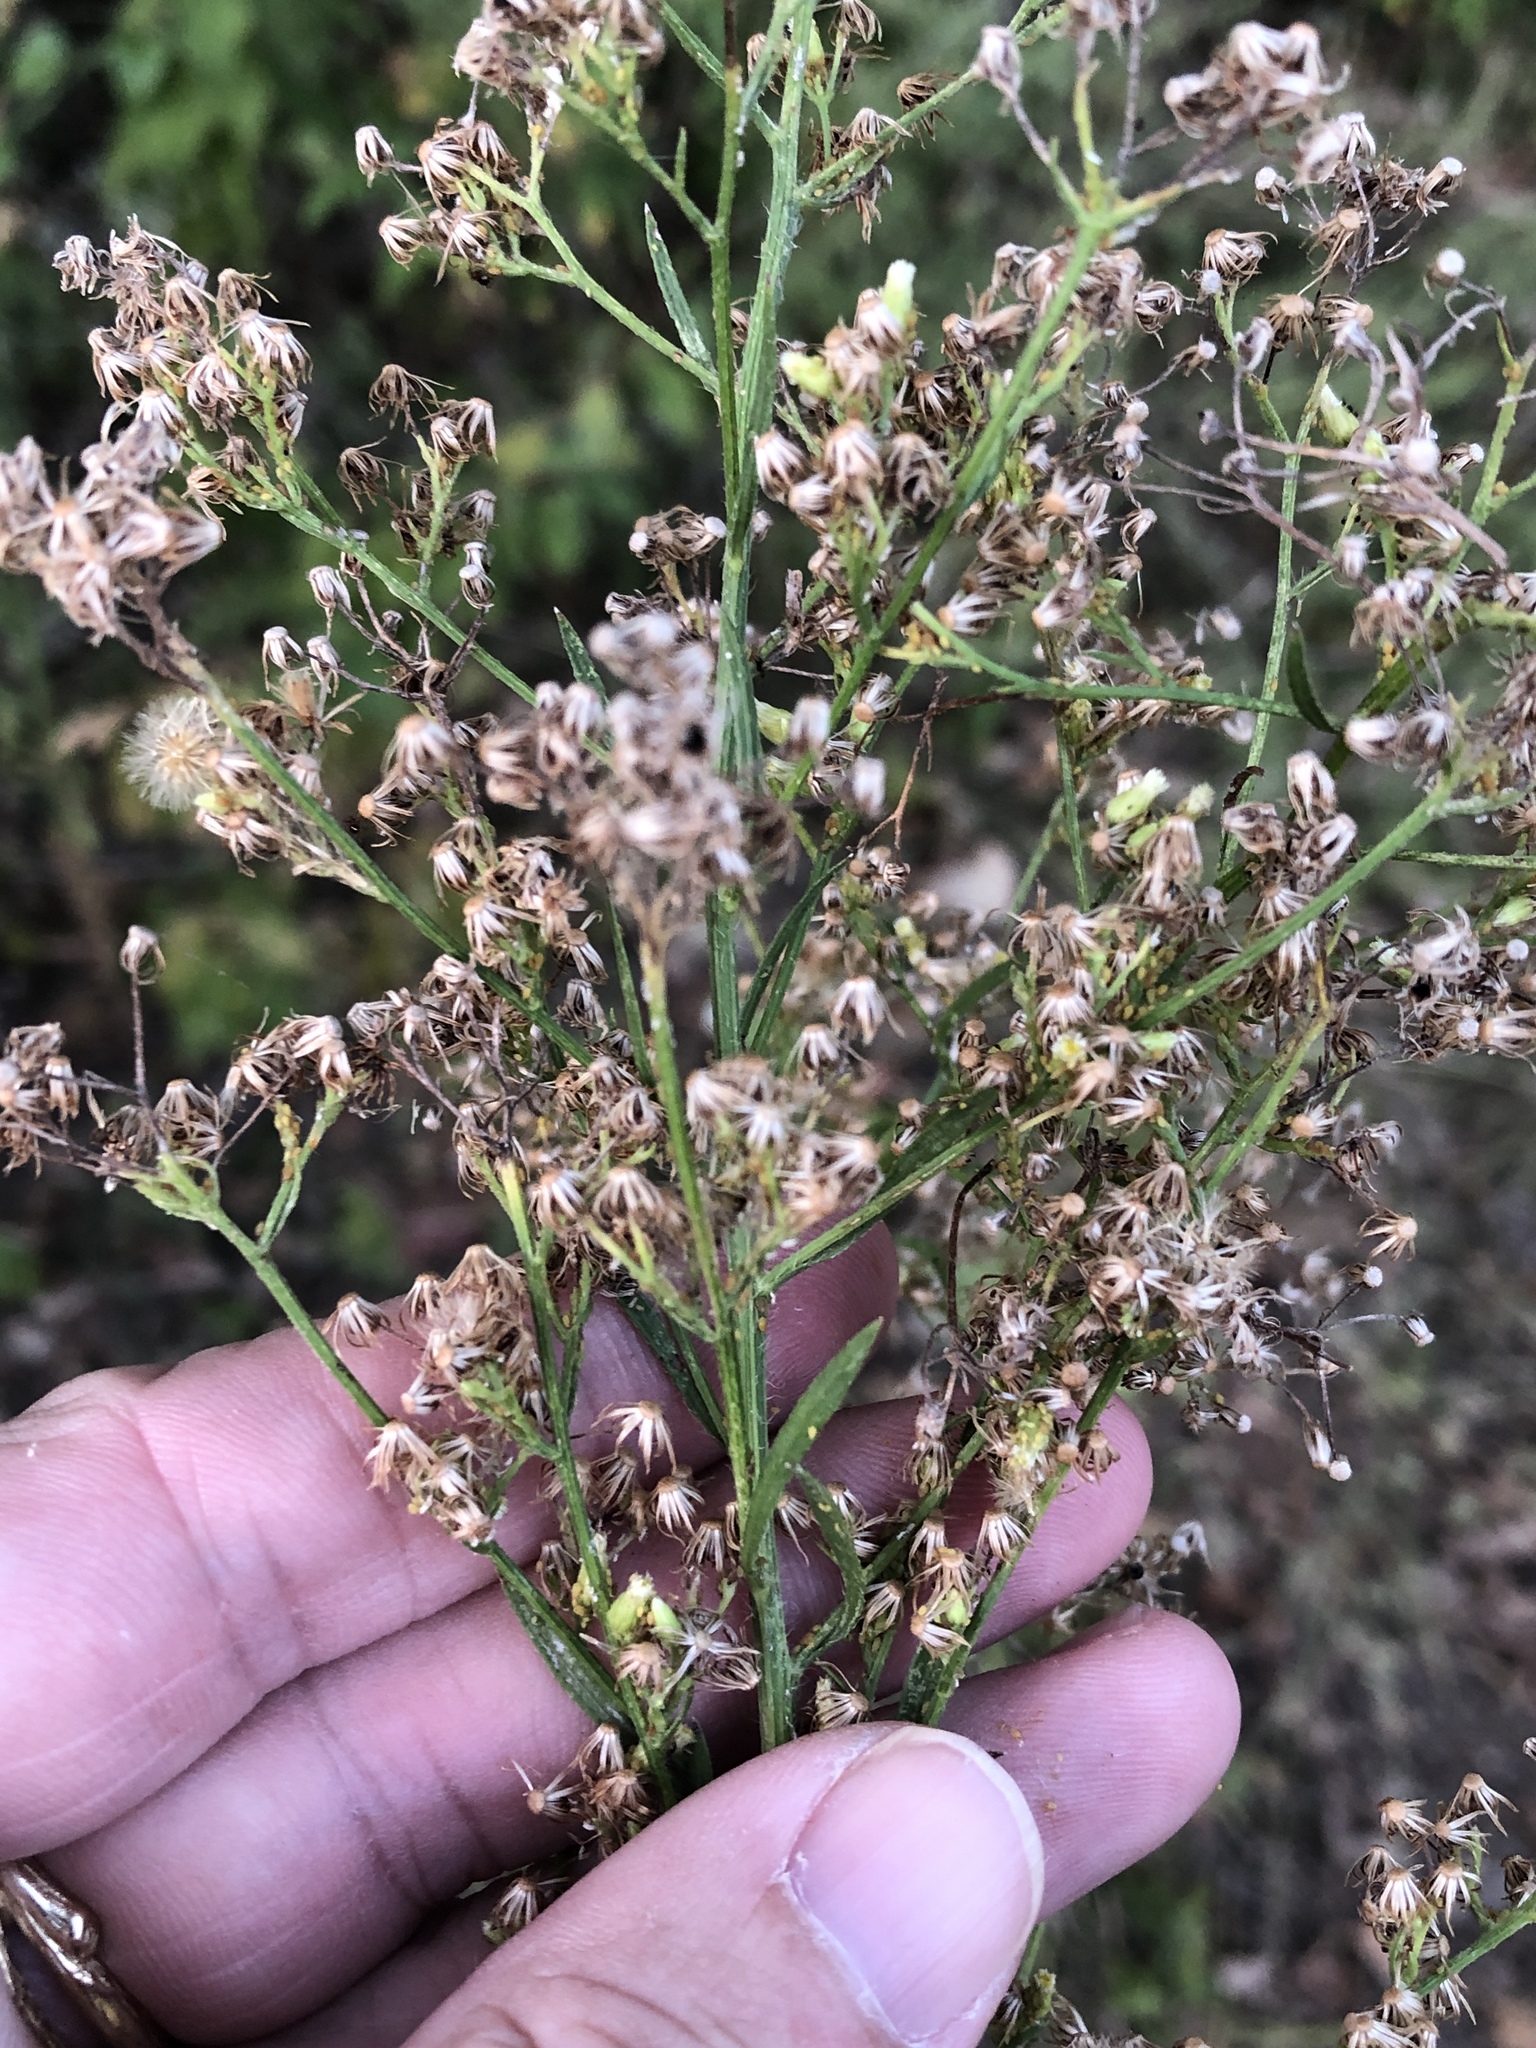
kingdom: Plantae
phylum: Tracheophyta
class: Magnoliopsida
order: Asterales
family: Asteraceae
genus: Erigeron
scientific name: Erigeron canadensis
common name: Canadian fleabane
